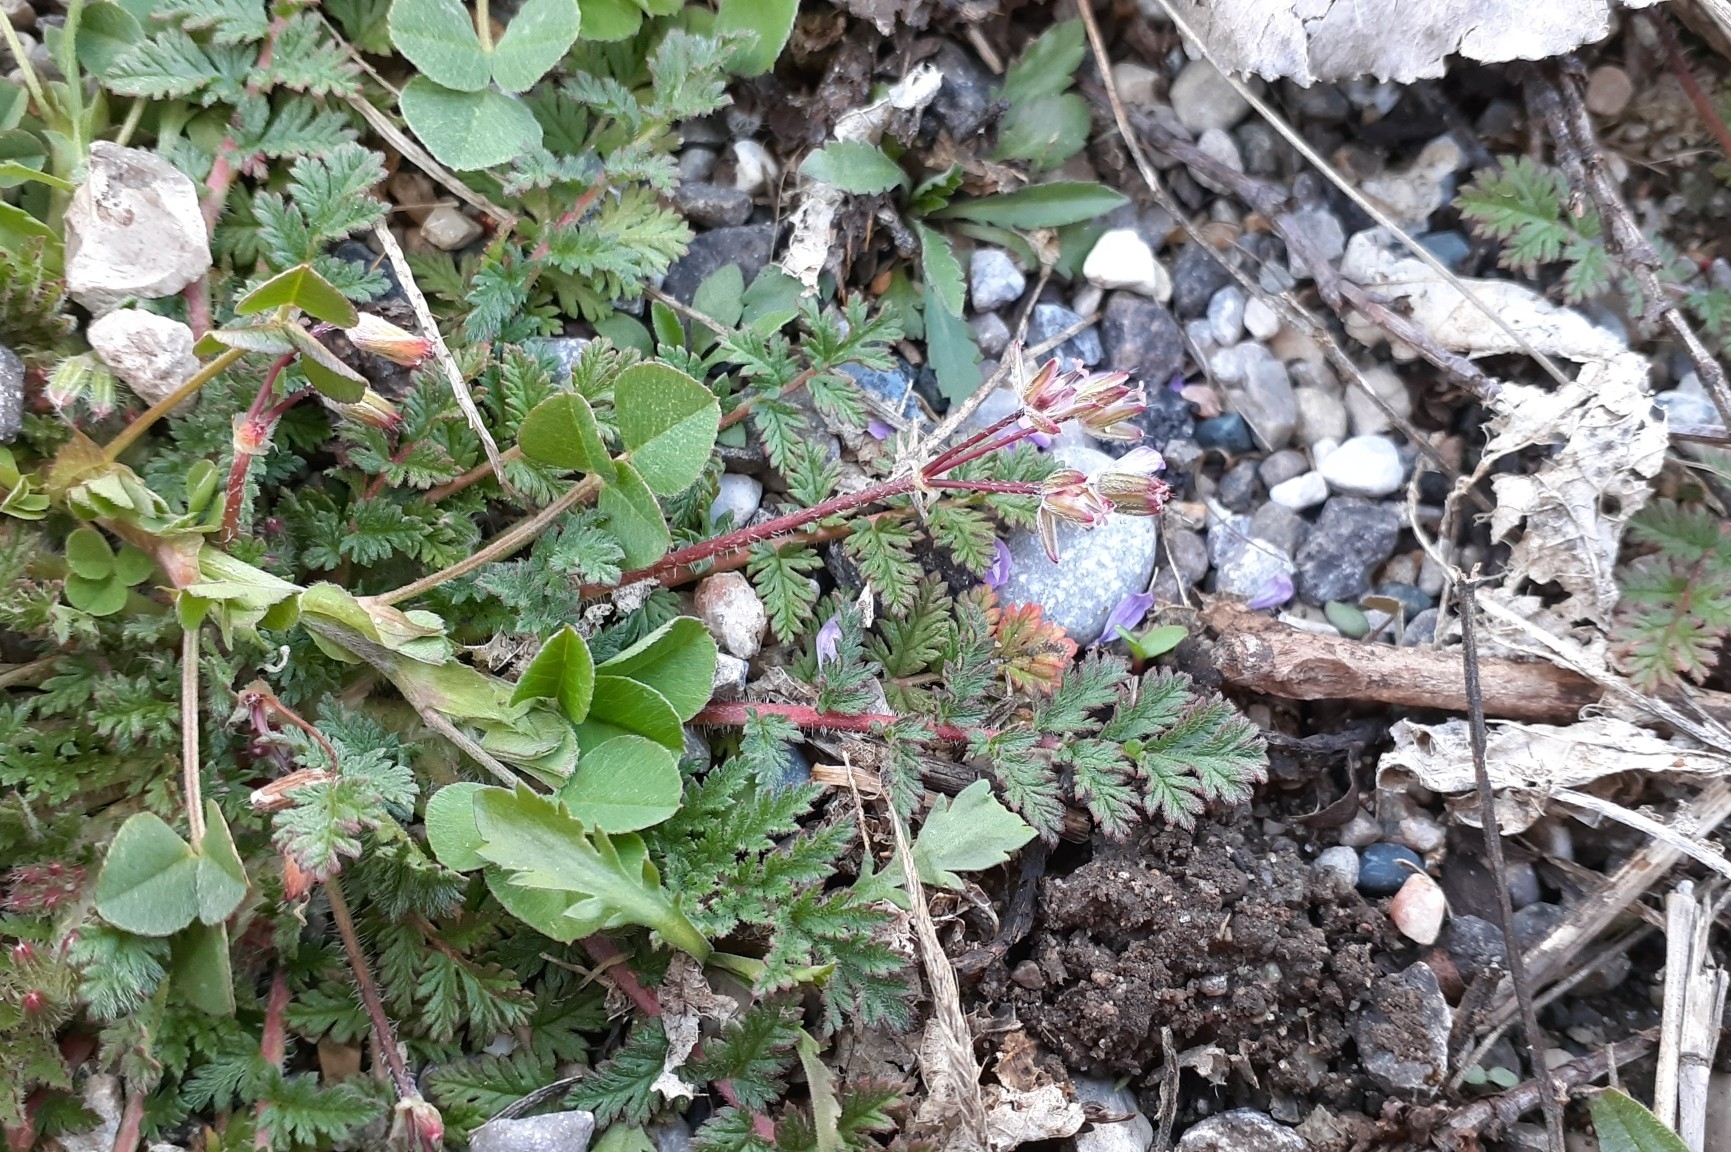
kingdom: Plantae
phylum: Tracheophyta
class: Magnoliopsida
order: Geraniales
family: Geraniaceae
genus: Erodium
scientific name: Erodium cicutarium
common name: Common stork's-bill
